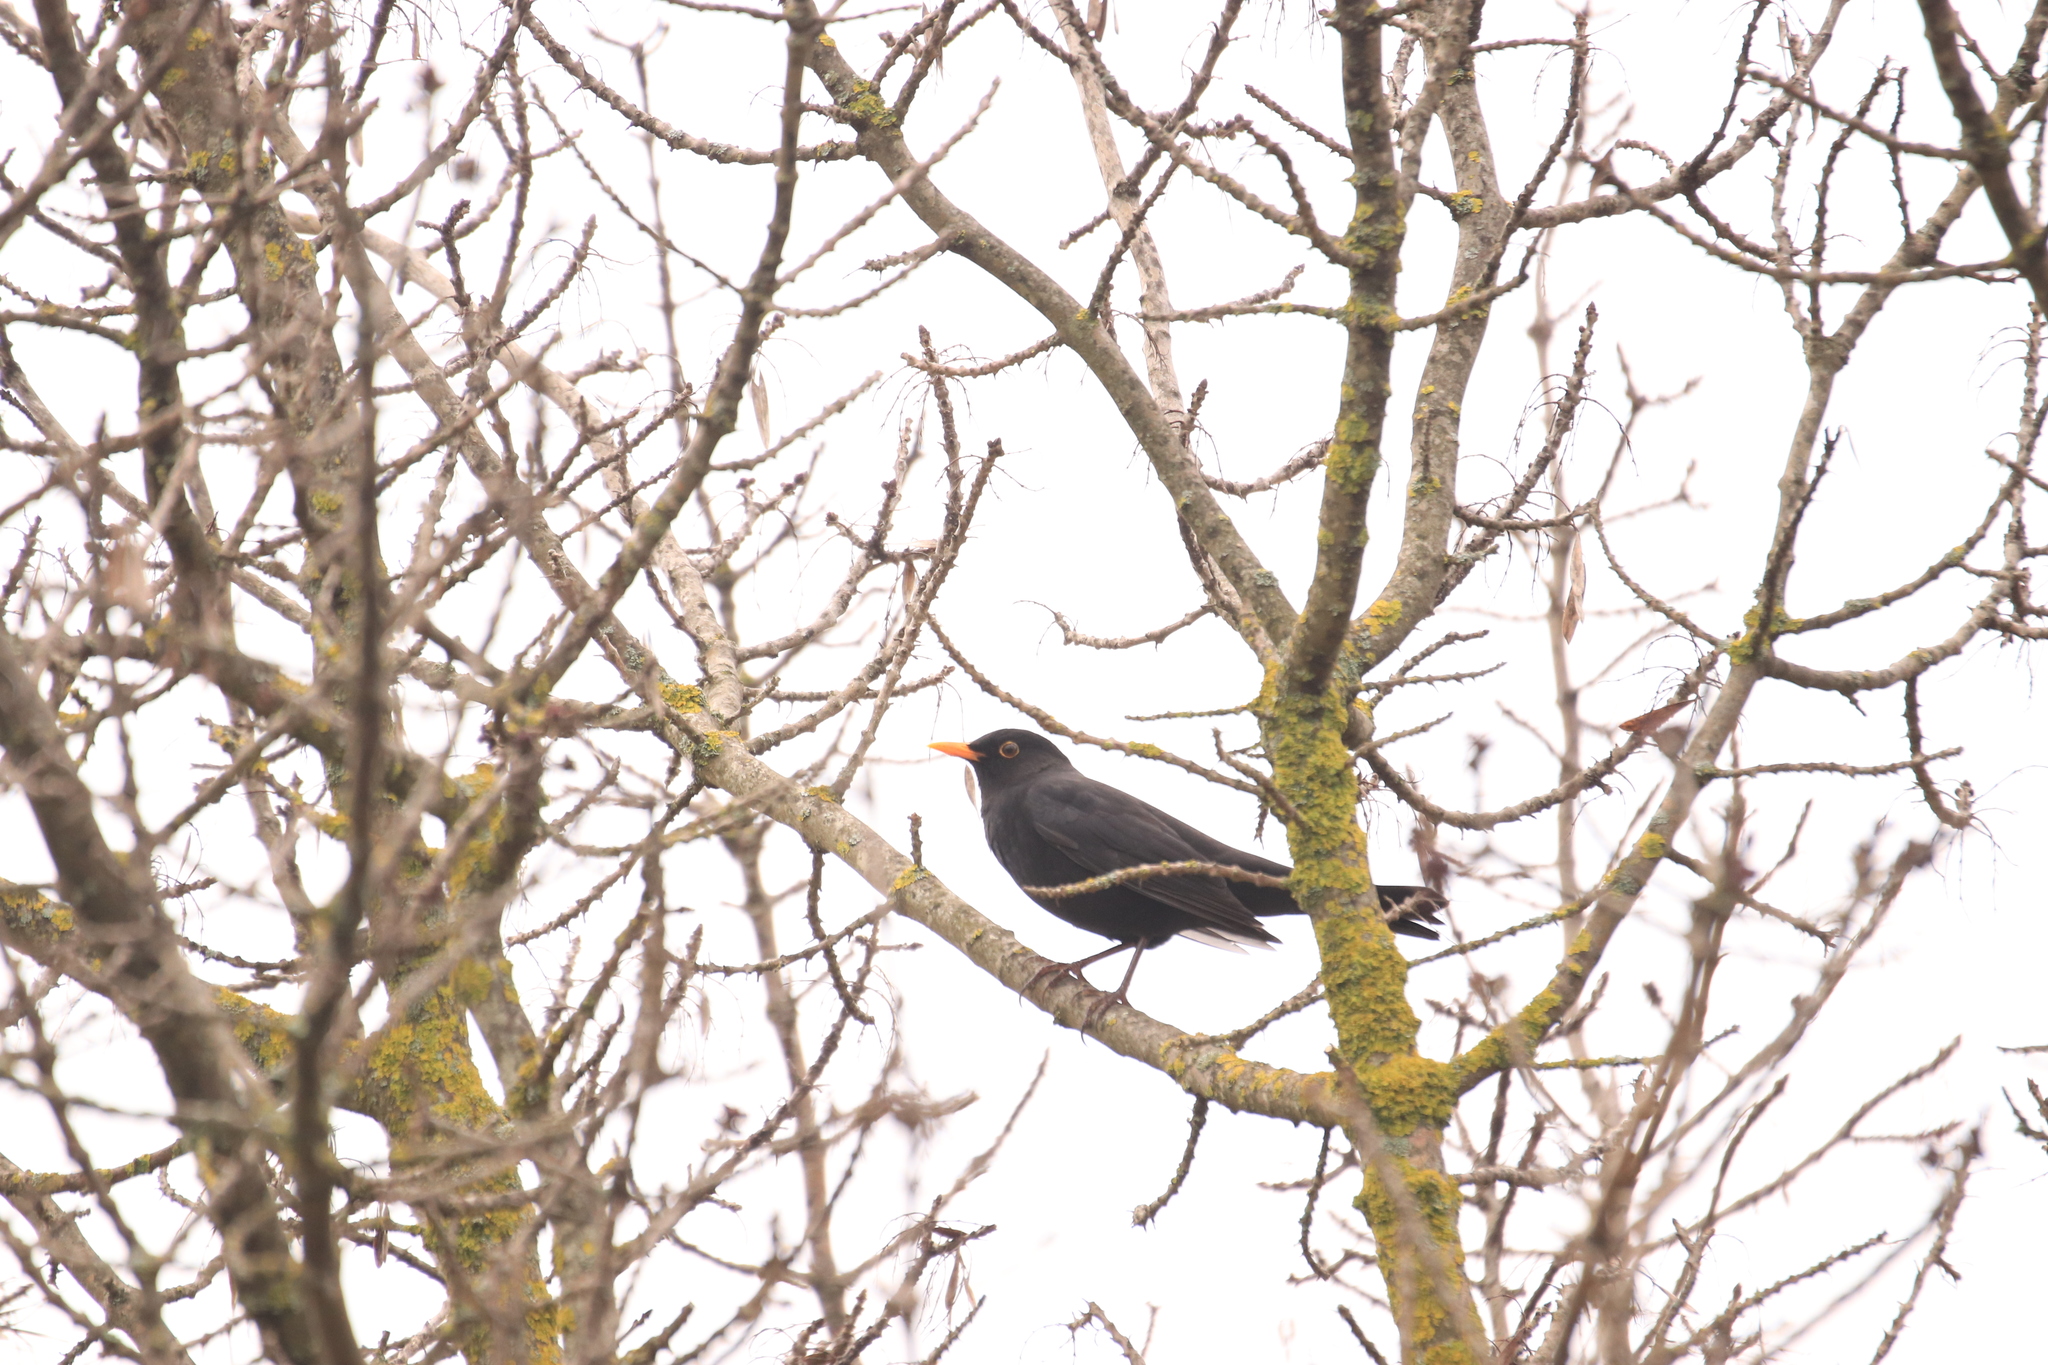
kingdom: Animalia
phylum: Chordata
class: Aves
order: Passeriformes
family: Turdidae
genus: Turdus
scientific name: Turdus merula
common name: Common blackbird
